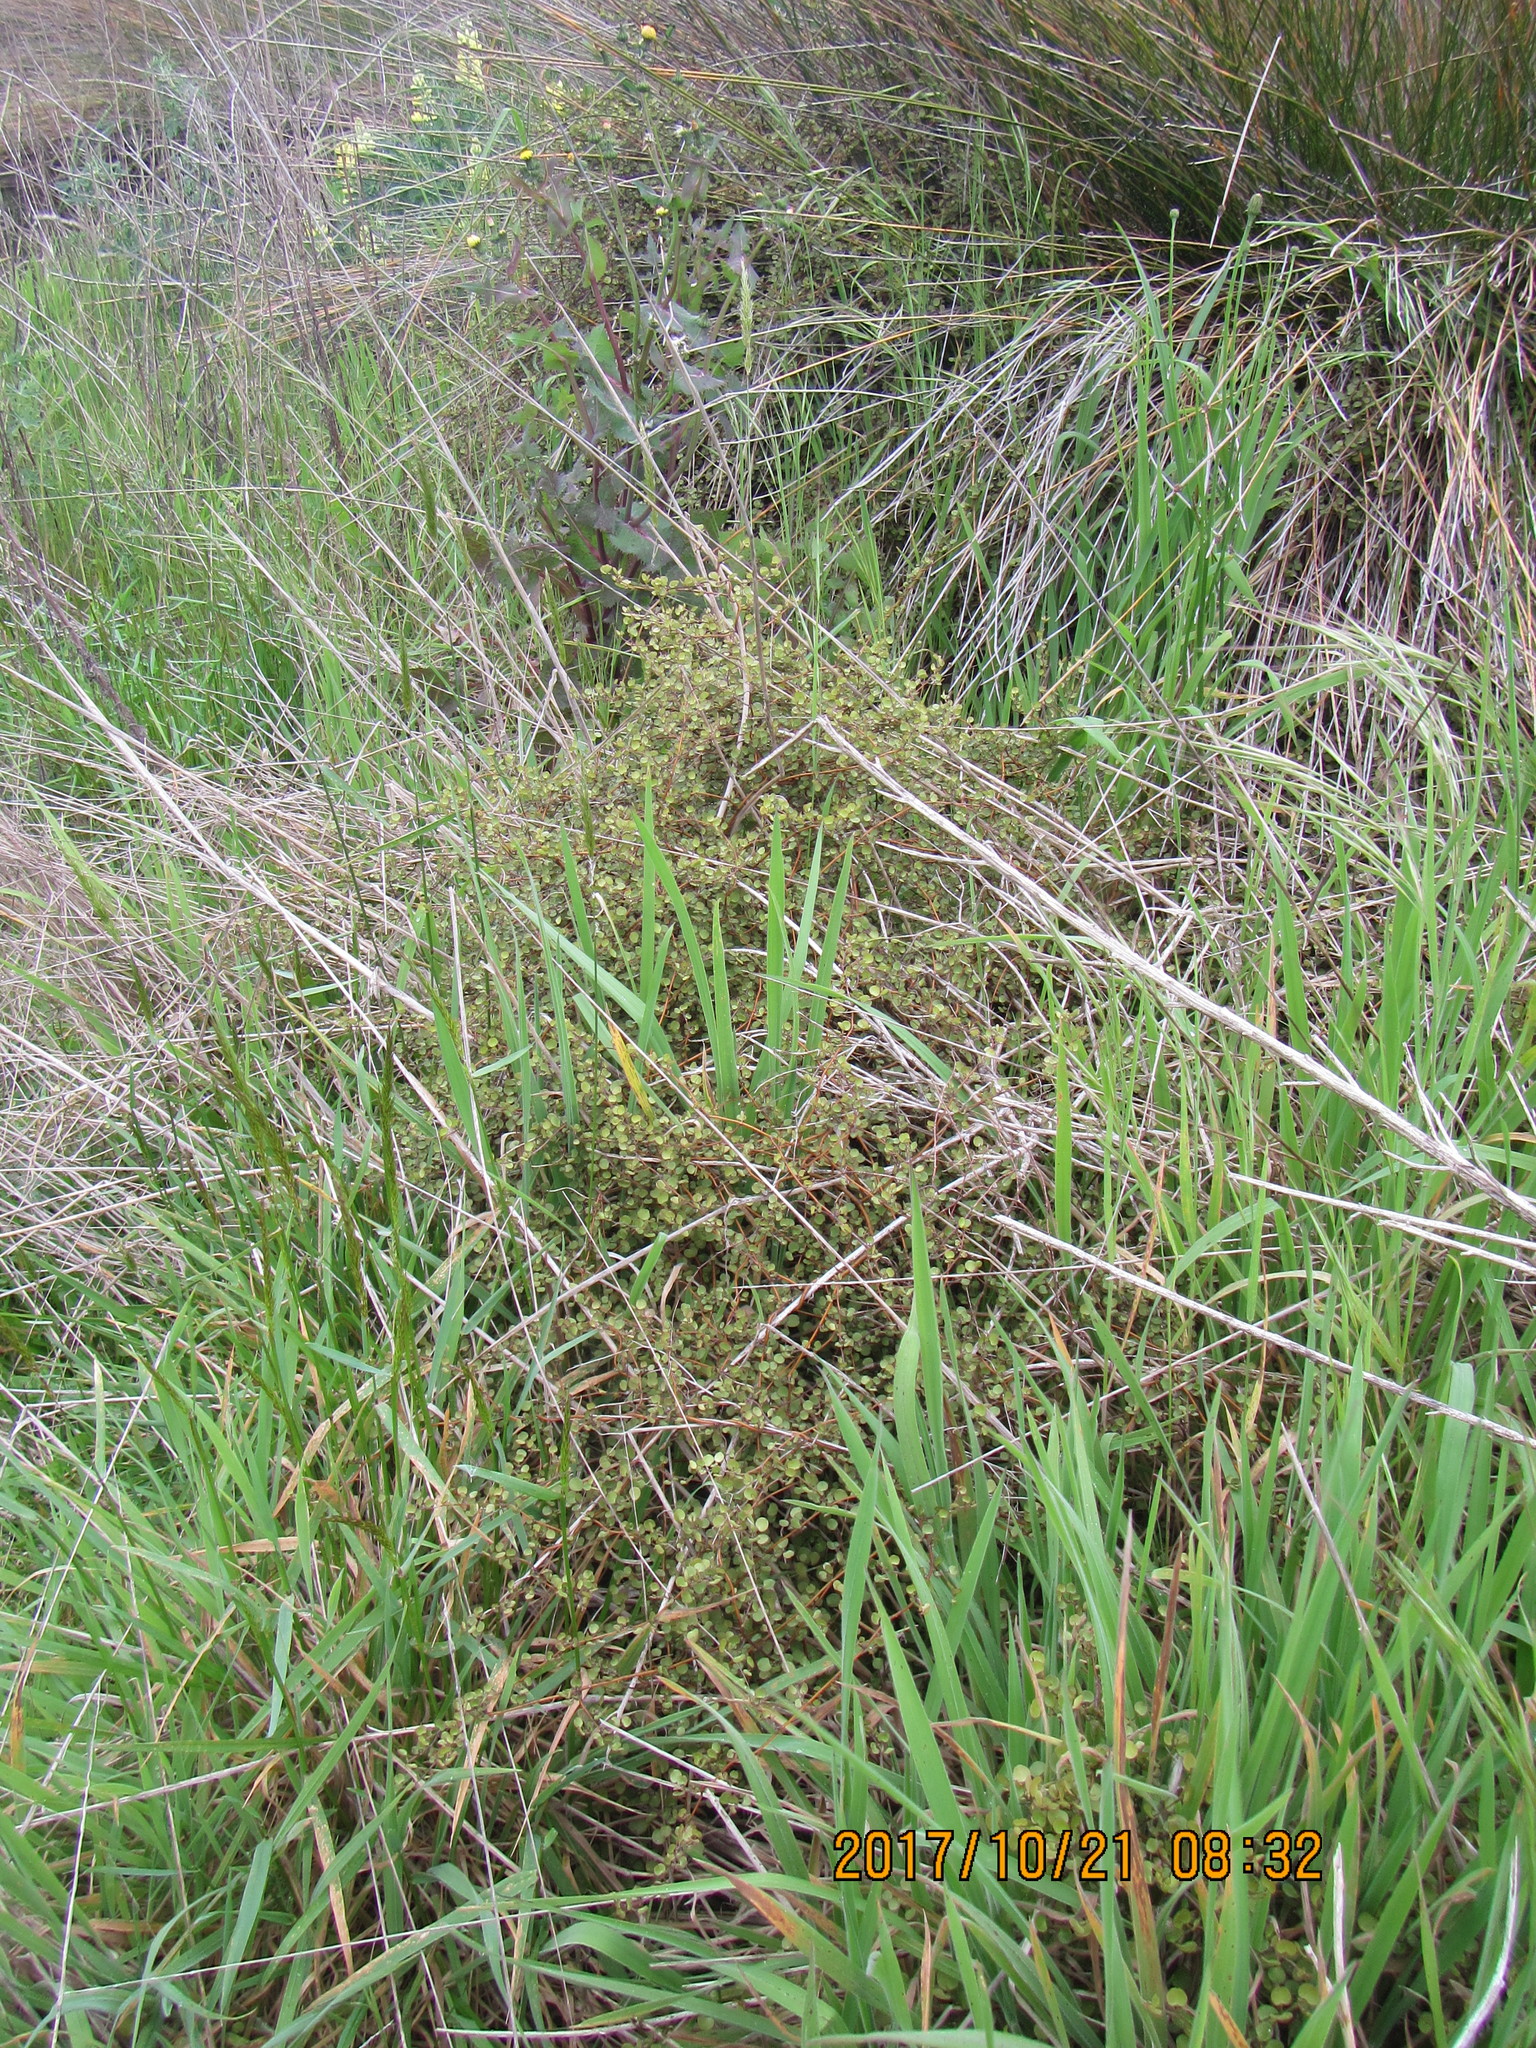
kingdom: Plantae
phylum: Tracheophyta
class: Magnoliopsida
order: Caryophyllales
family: Polygonaceae
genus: Muehlenbeckia
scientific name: Muehlenbeckia complexa
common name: Wireplant
